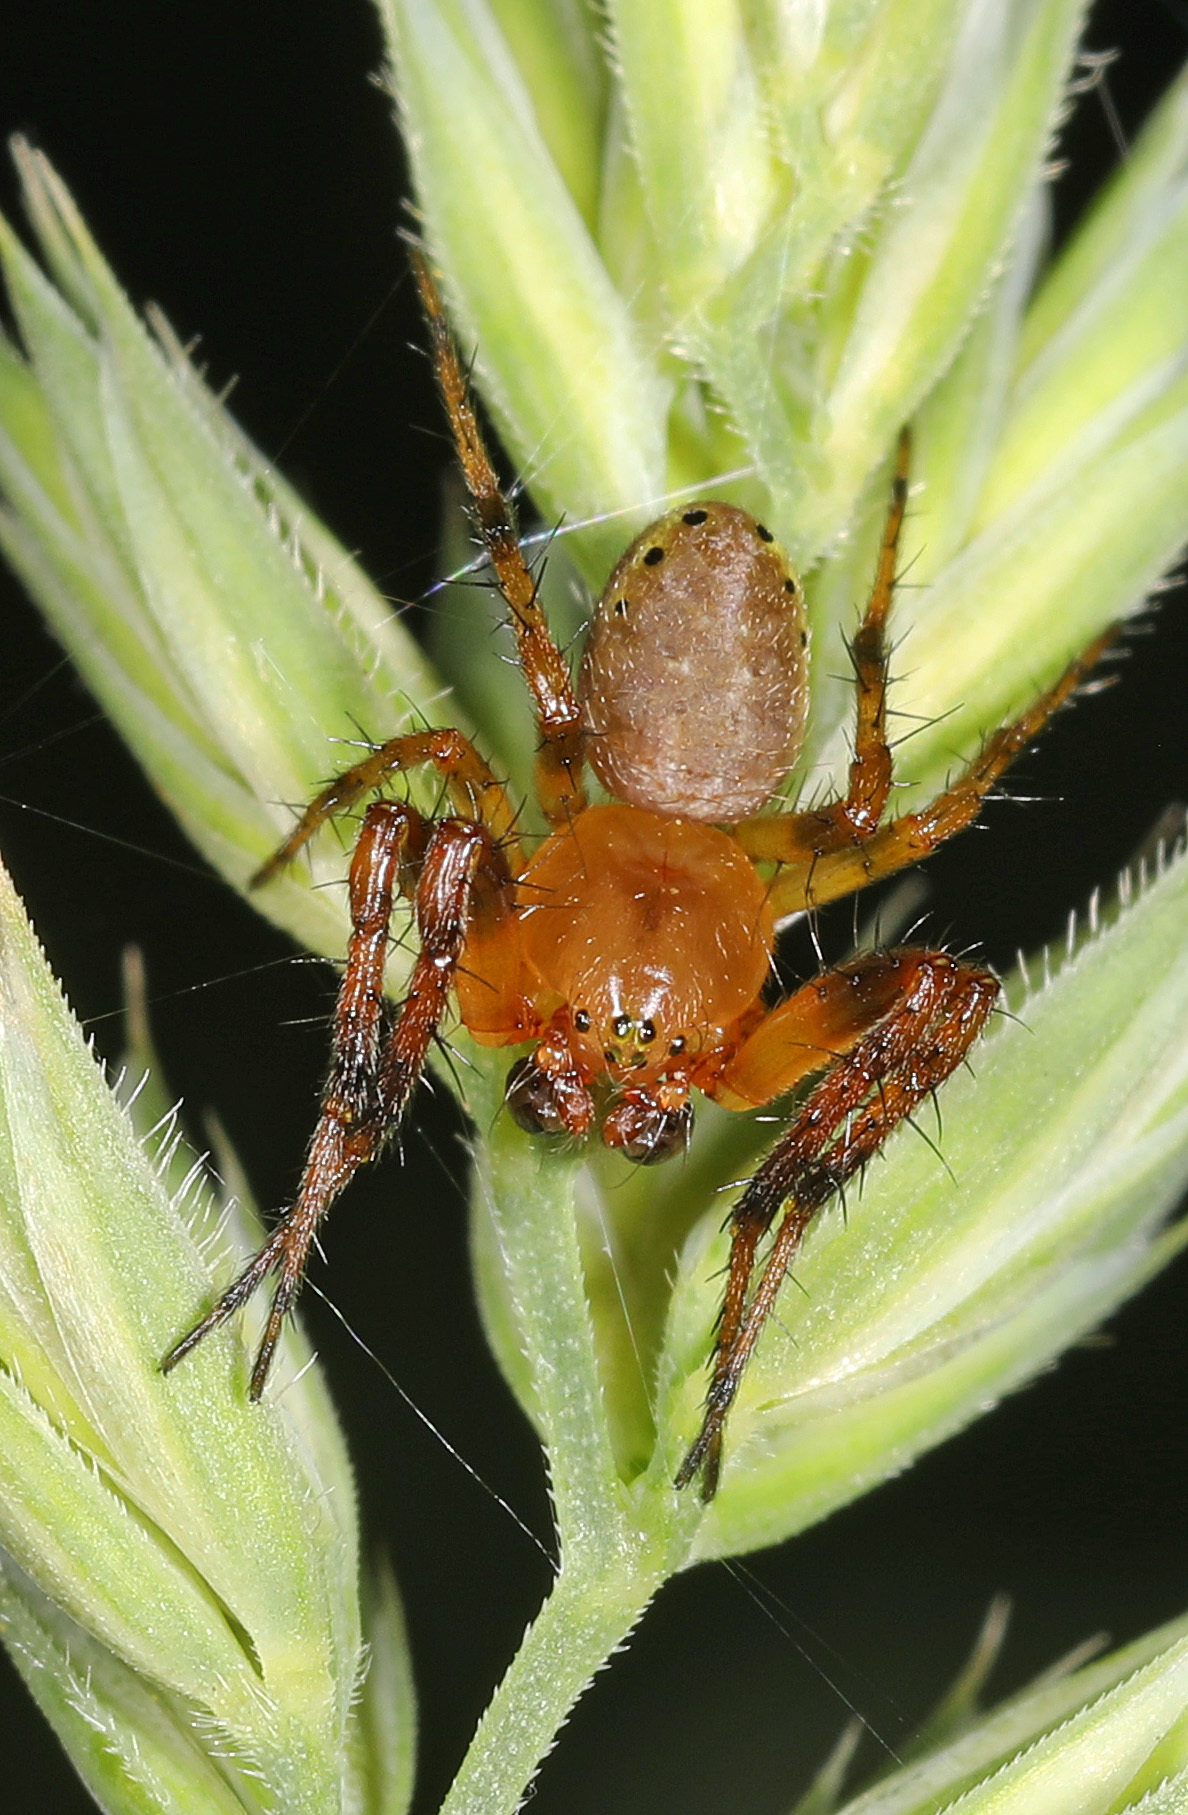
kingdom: Animalia
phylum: Arthropoda
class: Arachnida
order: Araneae
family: Araneidae
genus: Araniella
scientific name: Araniella displicata
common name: Sixspotted orb weaver
